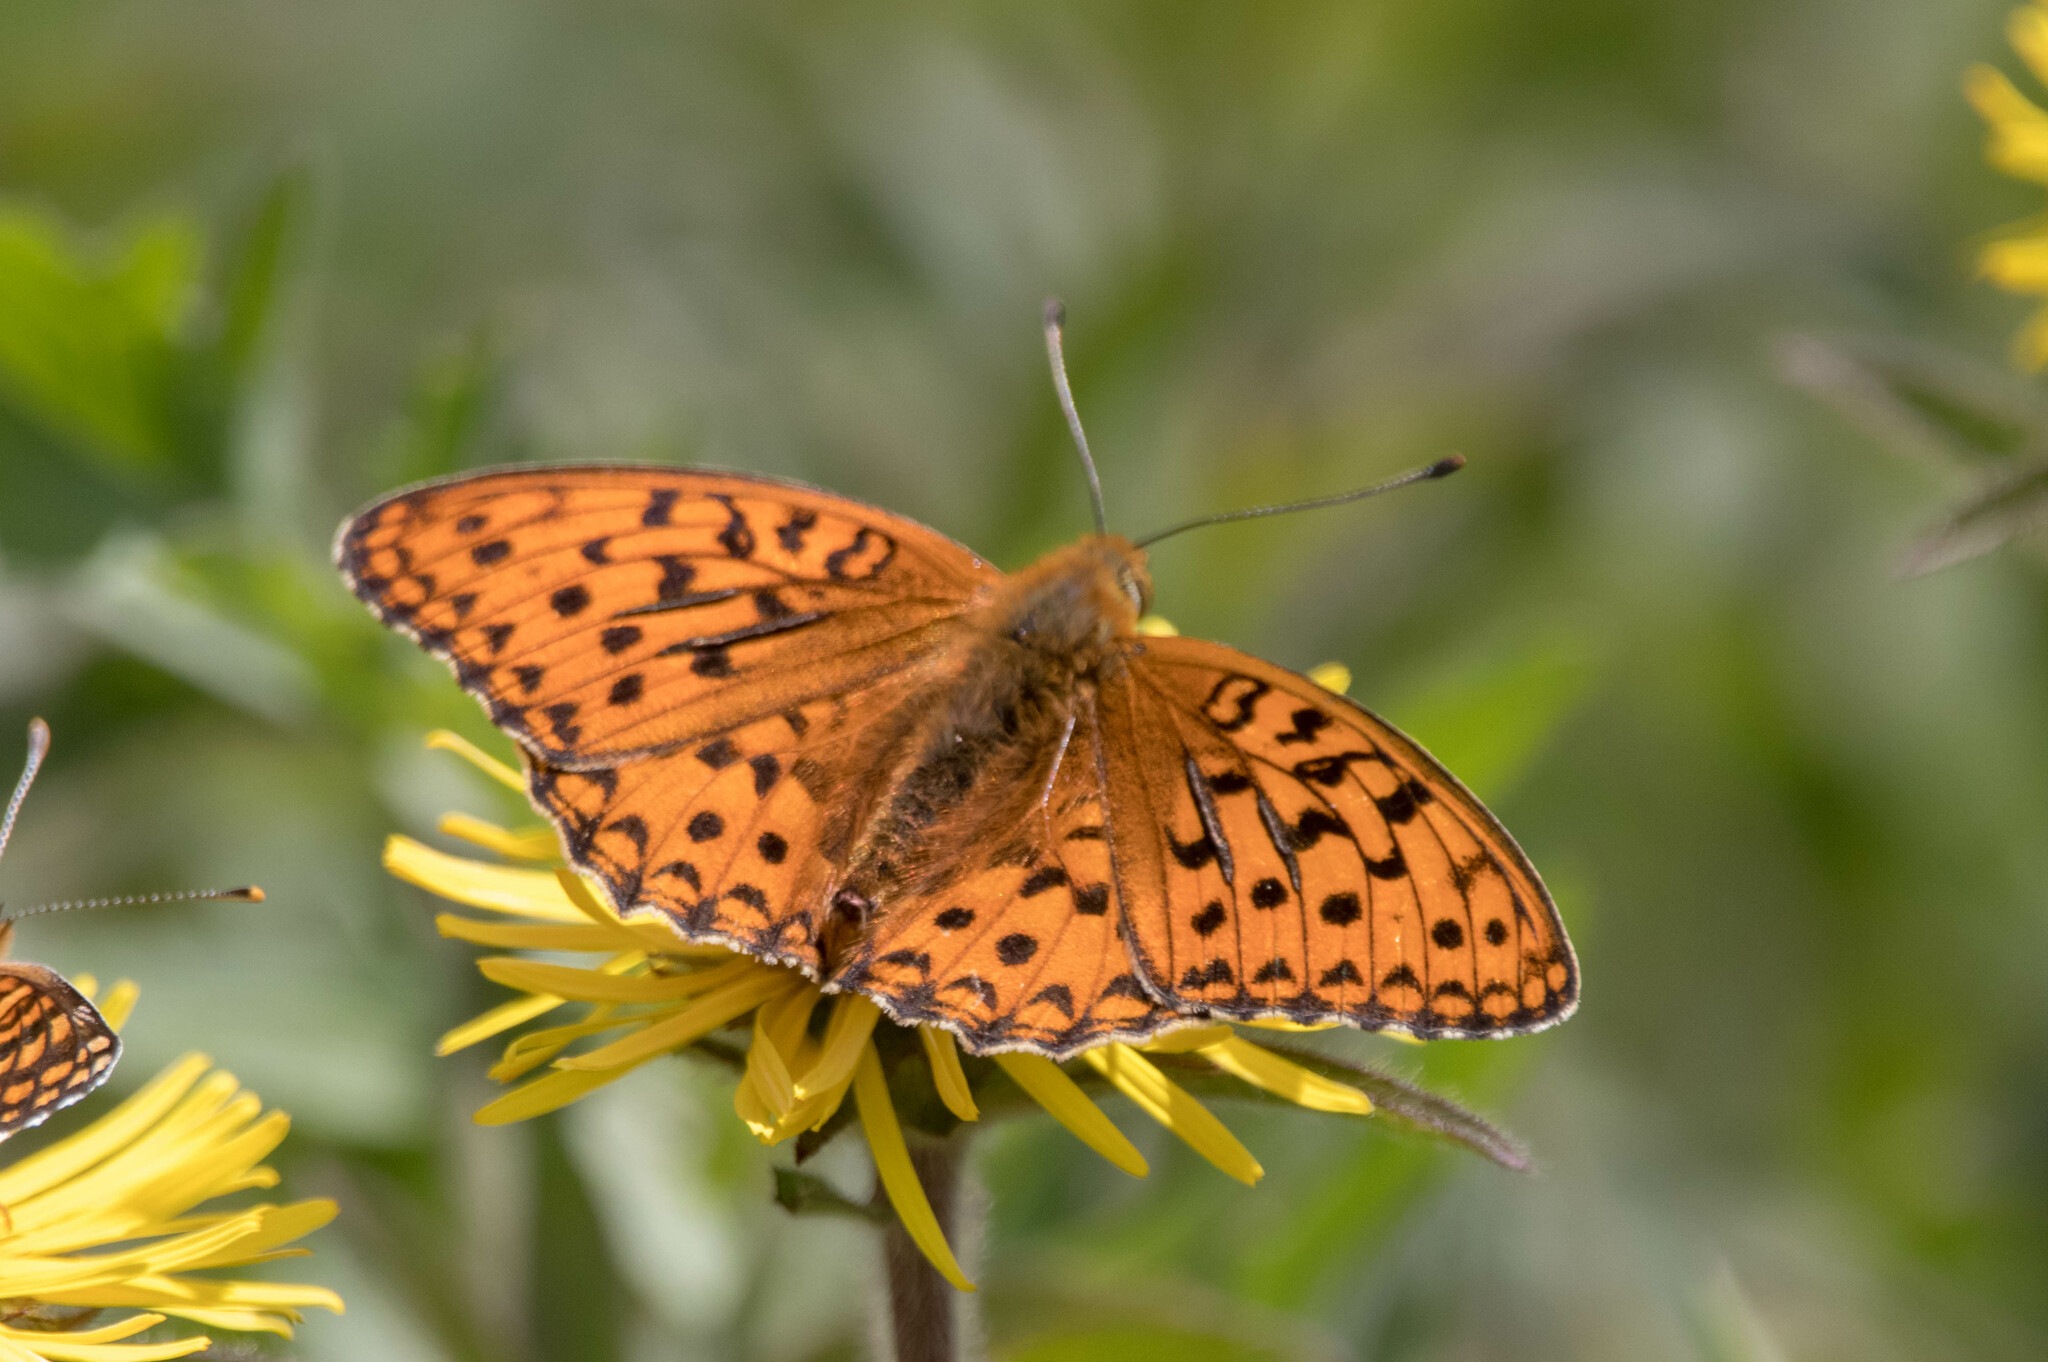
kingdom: Animalia
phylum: Arthropoda
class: Insecta
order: Lepidoptera
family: Nymphalidae
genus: Fabriciana
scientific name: Fabriciana adippe
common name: High brown fritillary
